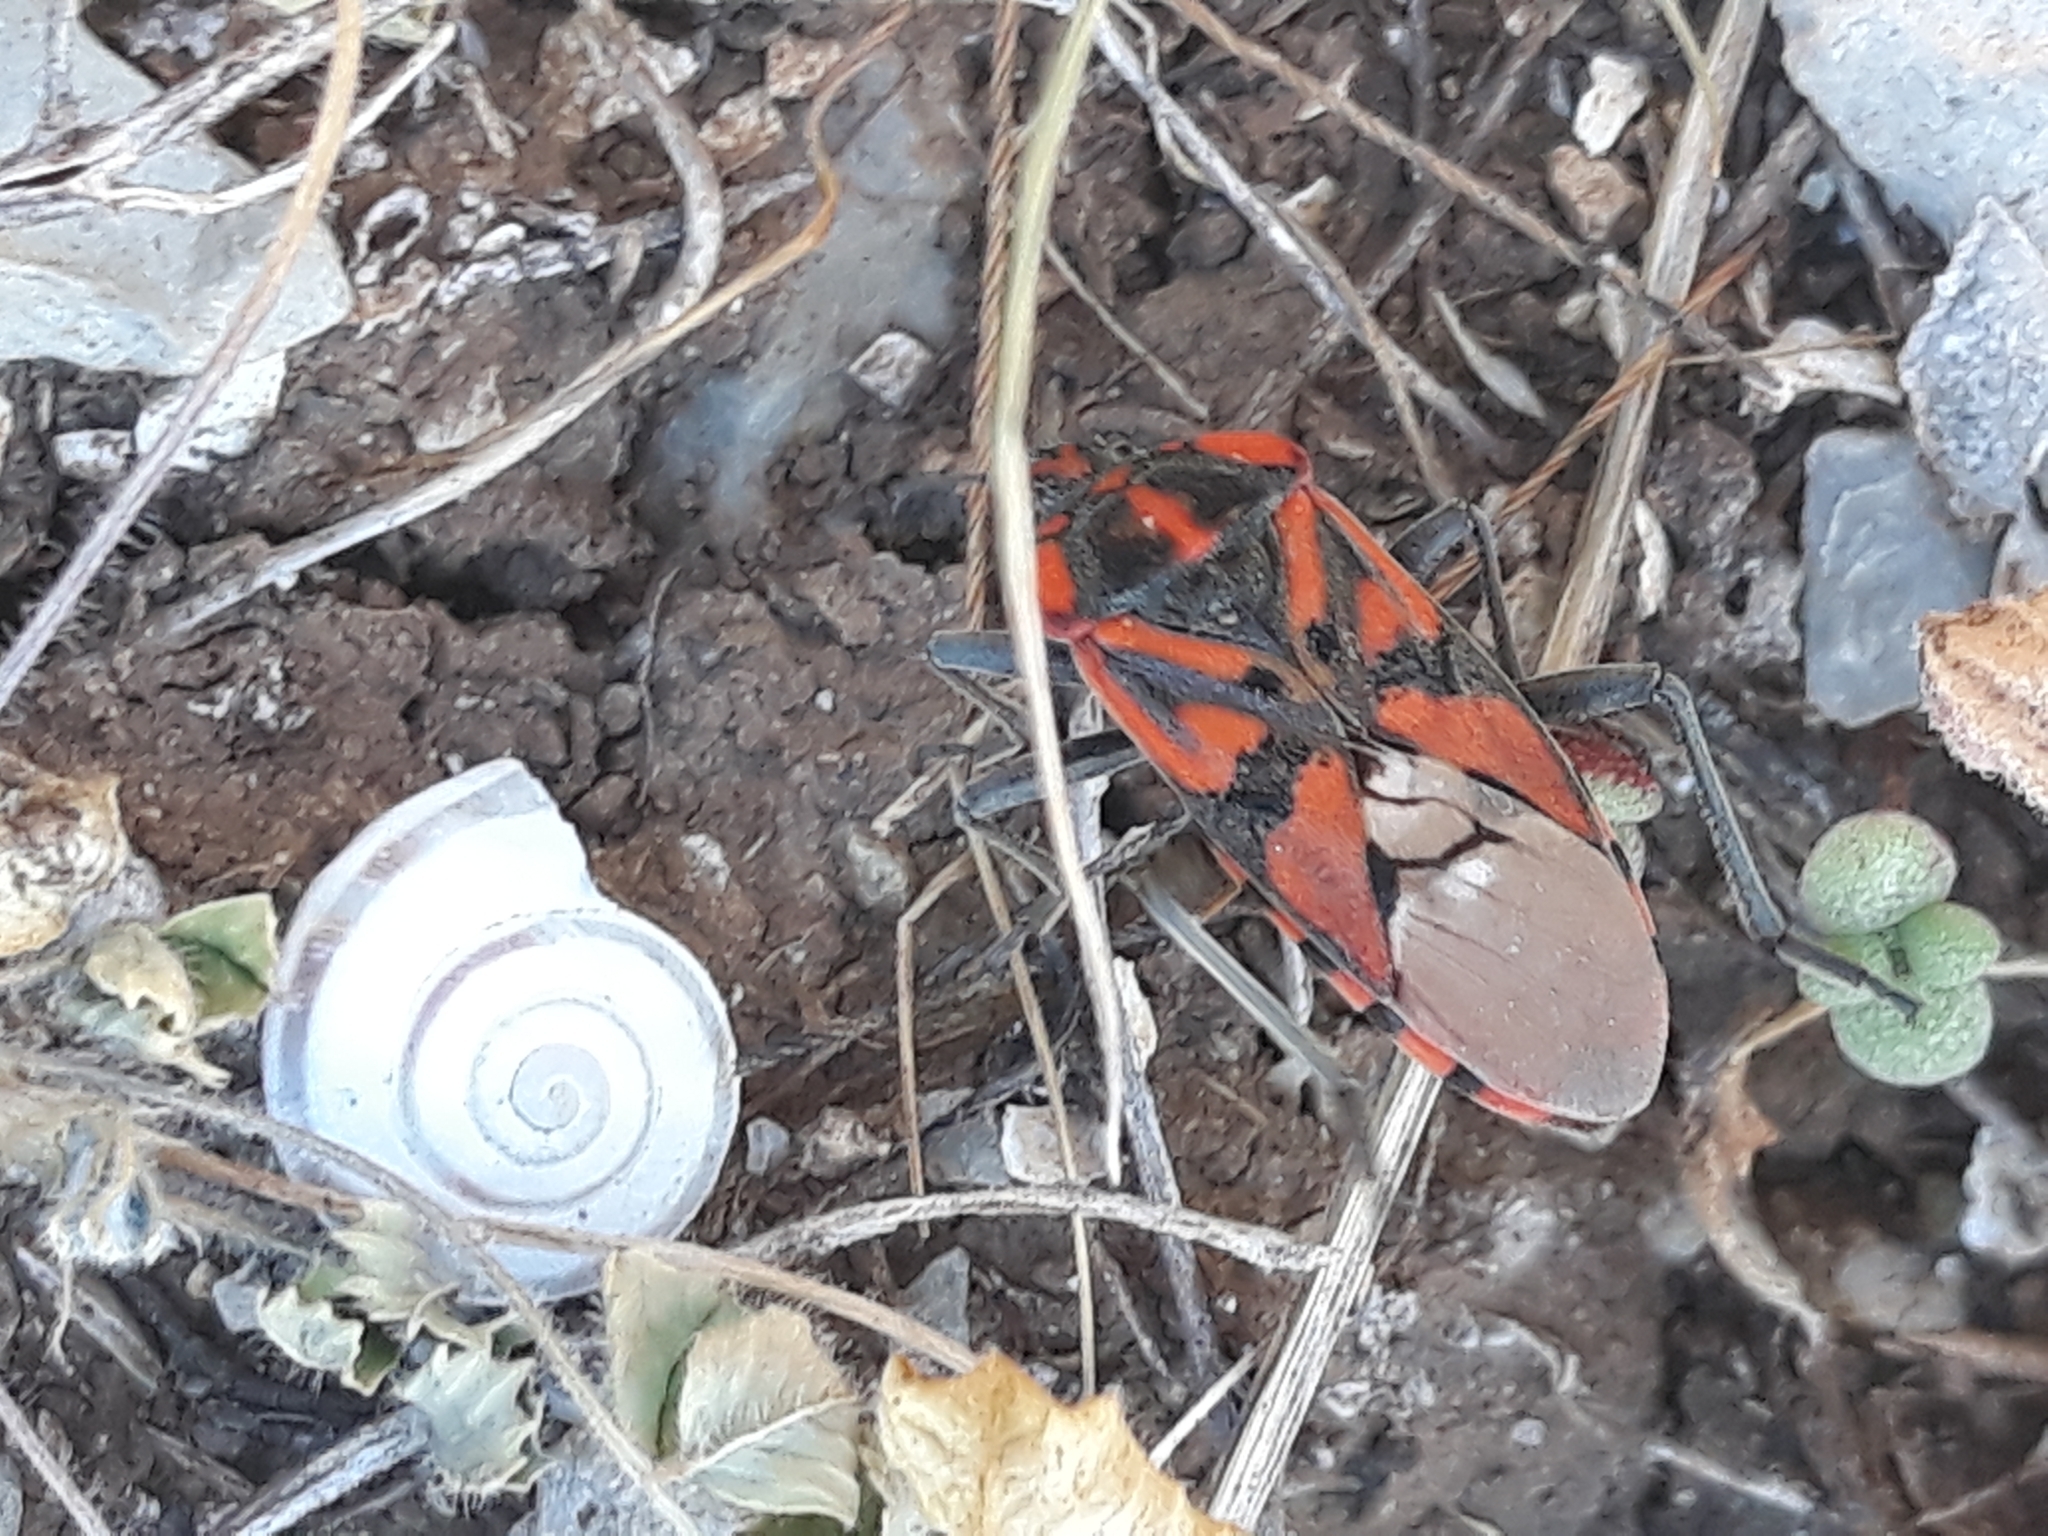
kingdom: Animalia
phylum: Arthropoda
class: Insecta
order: Hemiptera
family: Lygaeidae
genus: Spilostethus
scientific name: Spilostethus pandurus
